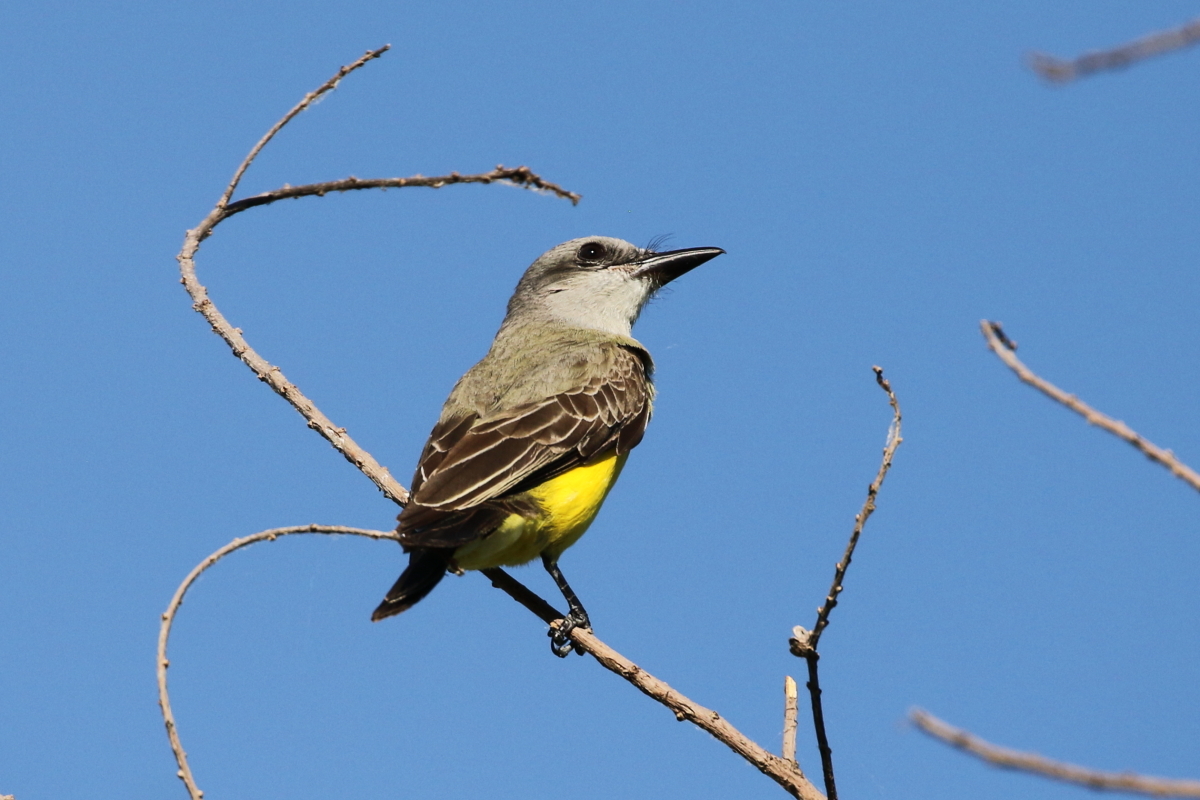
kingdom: Animalia
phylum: Chordata
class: Aves
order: Passeriformes
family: Tyrannidae
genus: Tyrannus
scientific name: Tyrannus melancholicus
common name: Tropical kingbird
